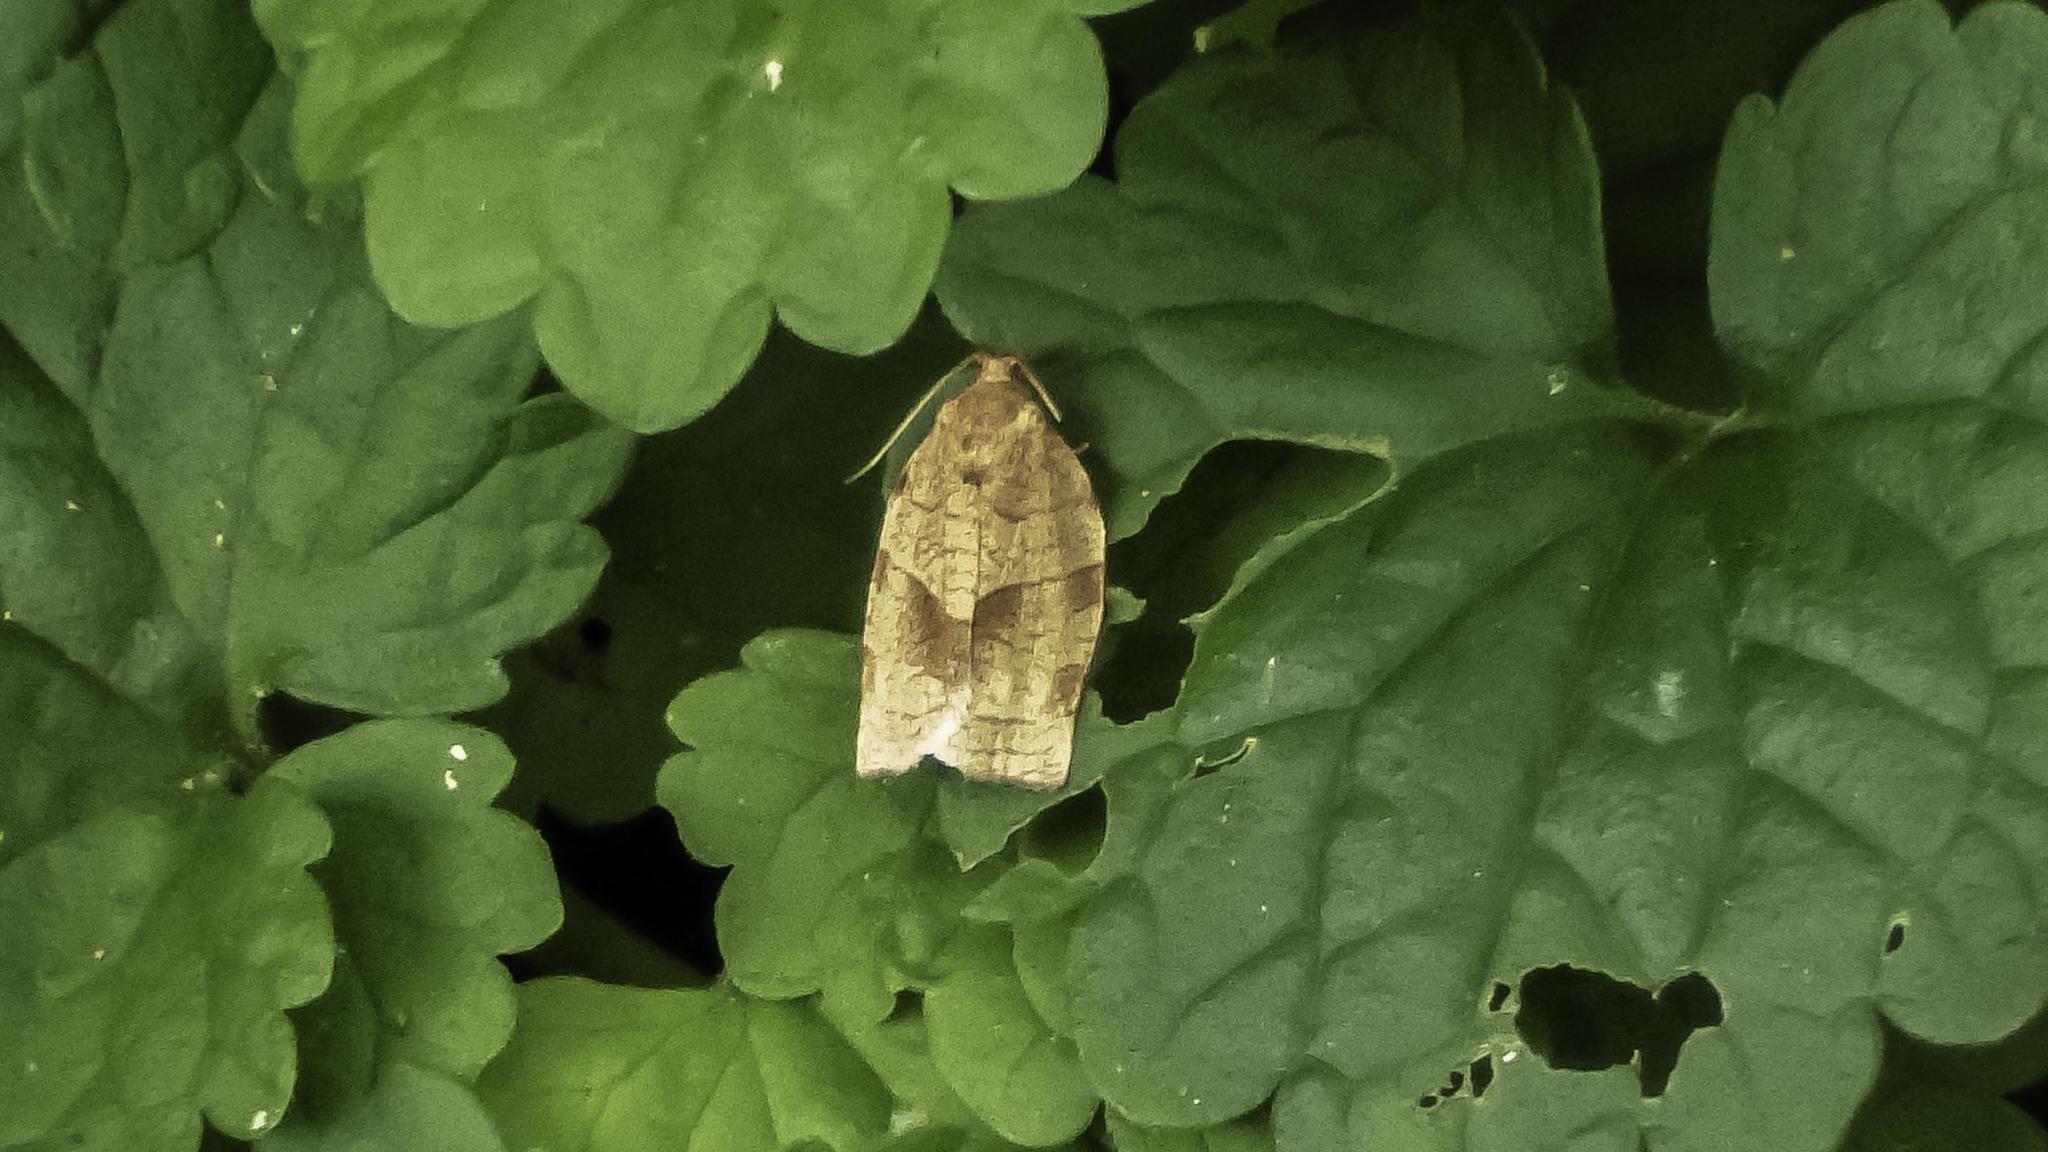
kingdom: Animalia
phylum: Arthropoda
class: Insecta
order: Lepidoptera
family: Tortricidae
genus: Choristoneura
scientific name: Choristoneura rosaceana
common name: Oblique-banded leafroller moth
